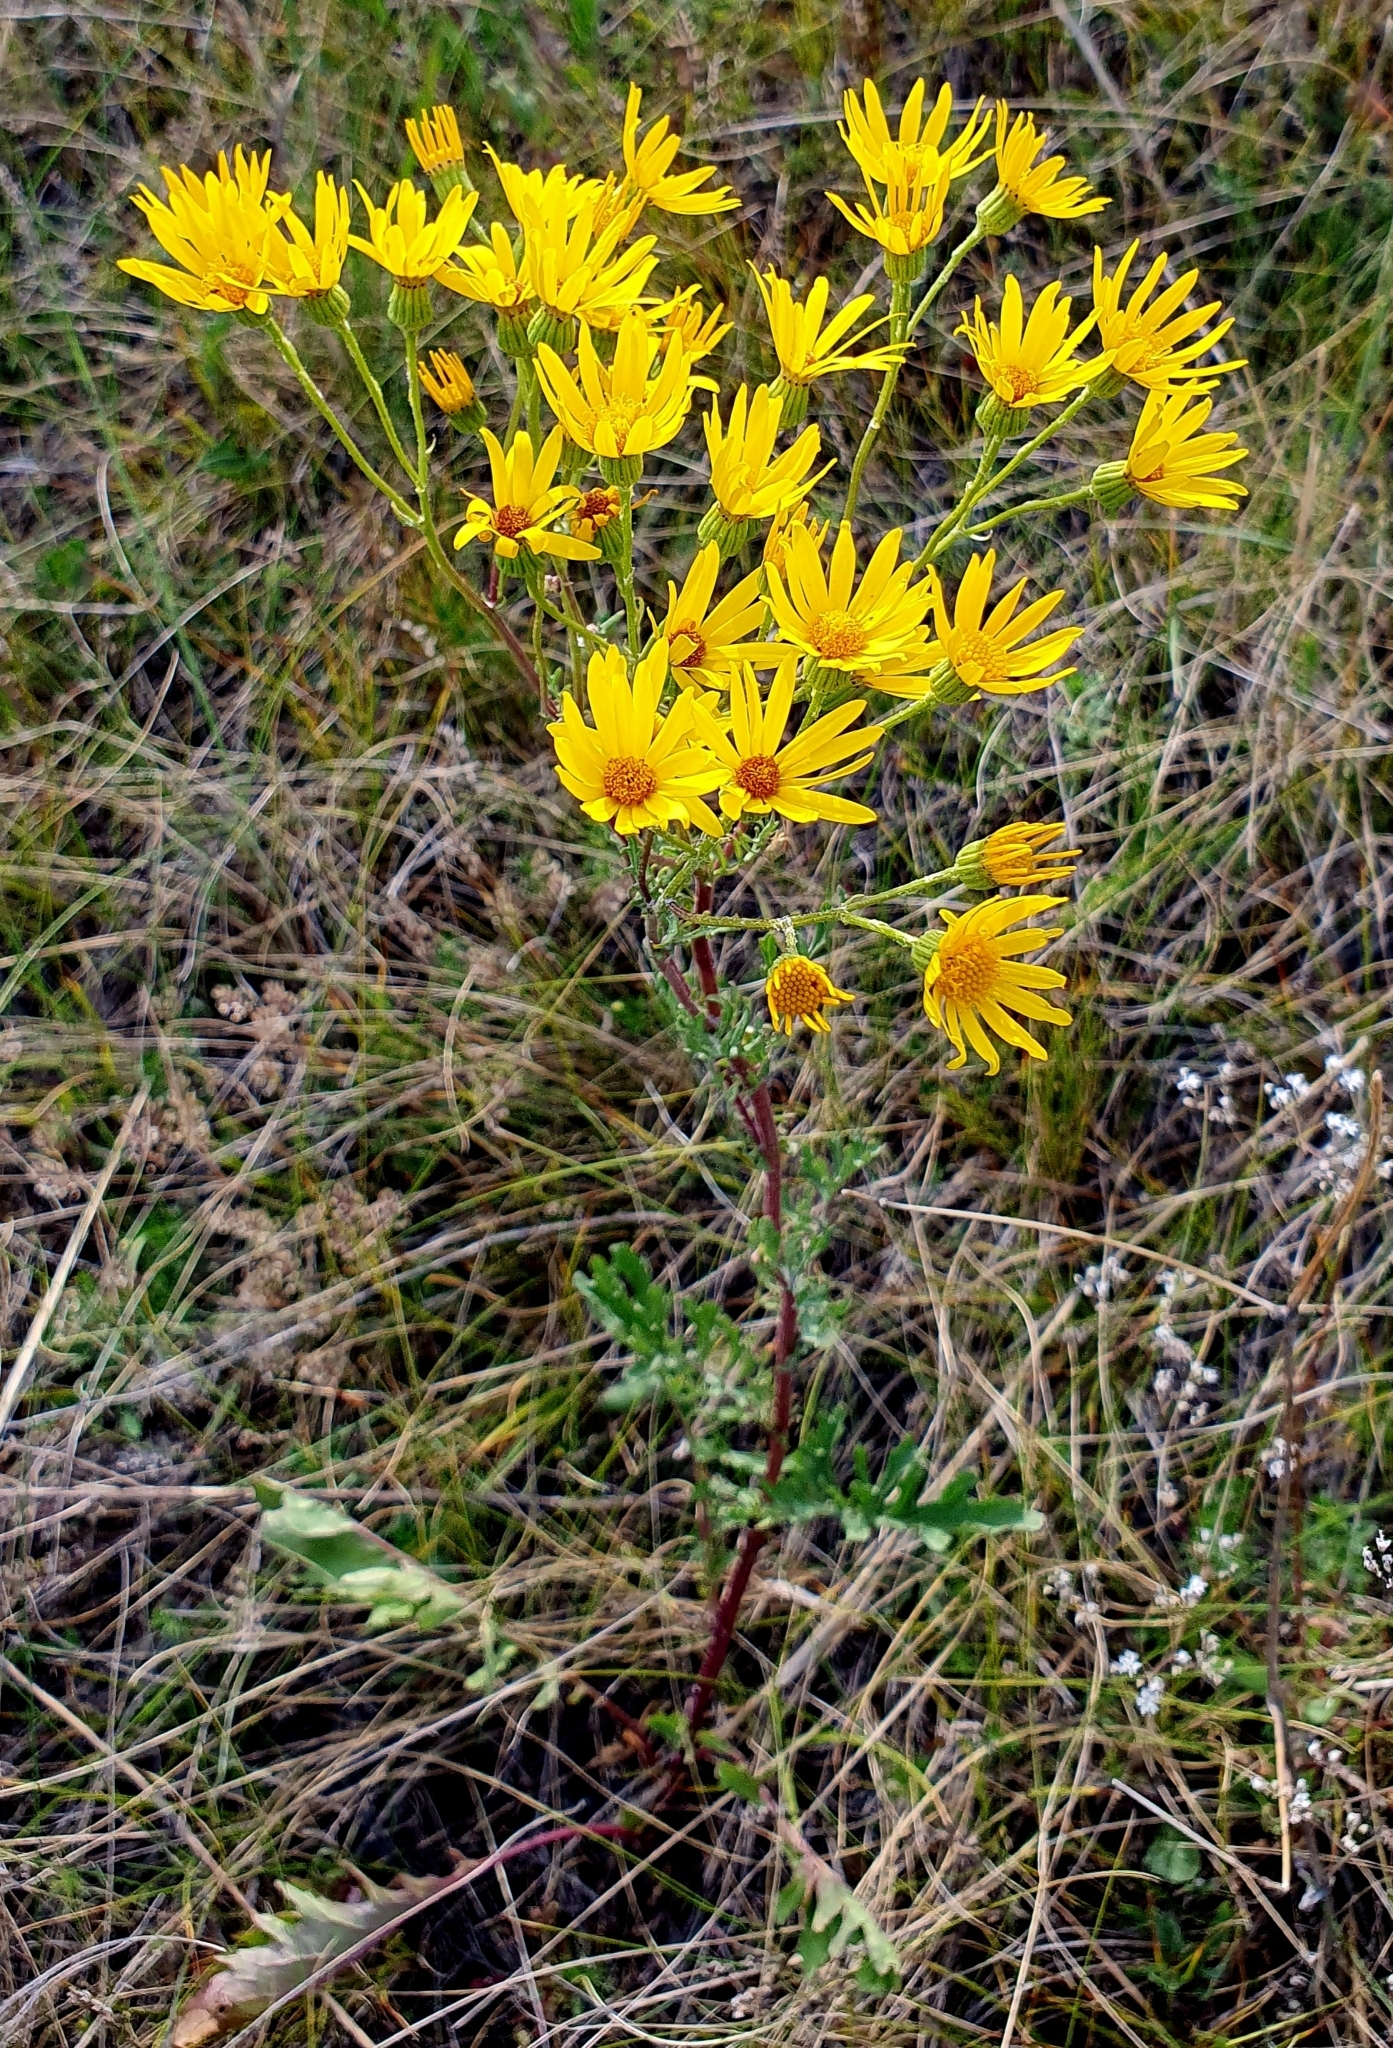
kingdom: Plantae
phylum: Tracheophyta
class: Magnoliopsida
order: Asterales
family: Asteraceae
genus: Jacobaea
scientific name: Jacobaea vulgaris
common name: Stinking willie
